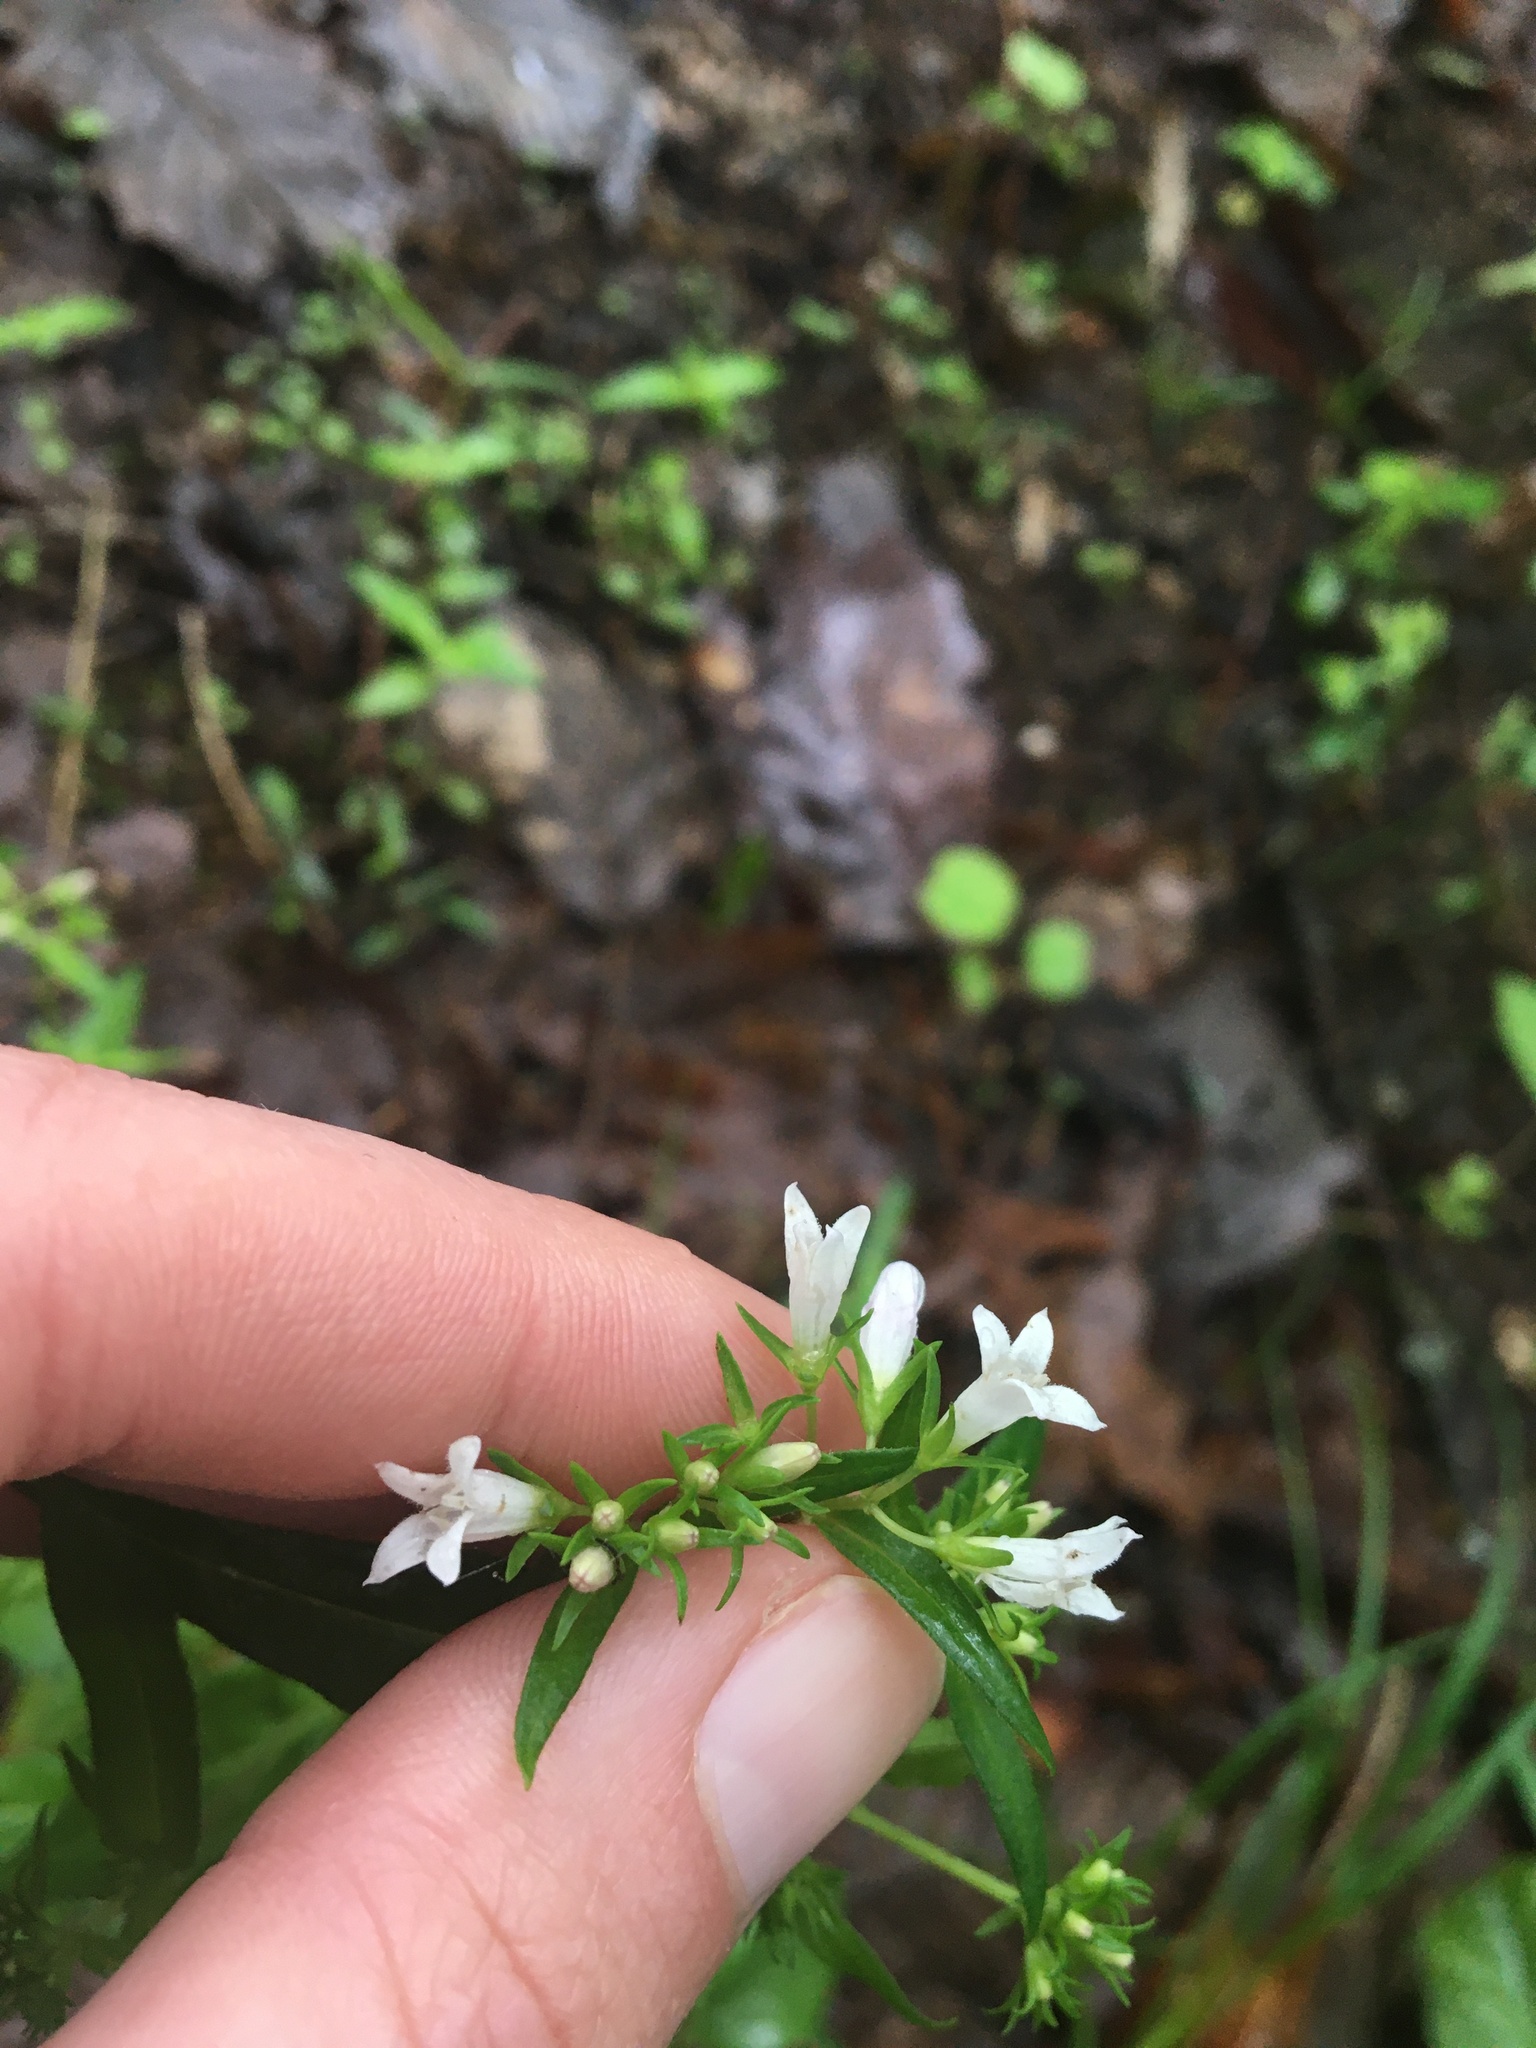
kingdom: Plantae
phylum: Tracheophyta
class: Magnoliopsida
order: Gentianales
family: Rubiaceae
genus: Houstonia
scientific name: Houstonia purpurea
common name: Summer bluet
